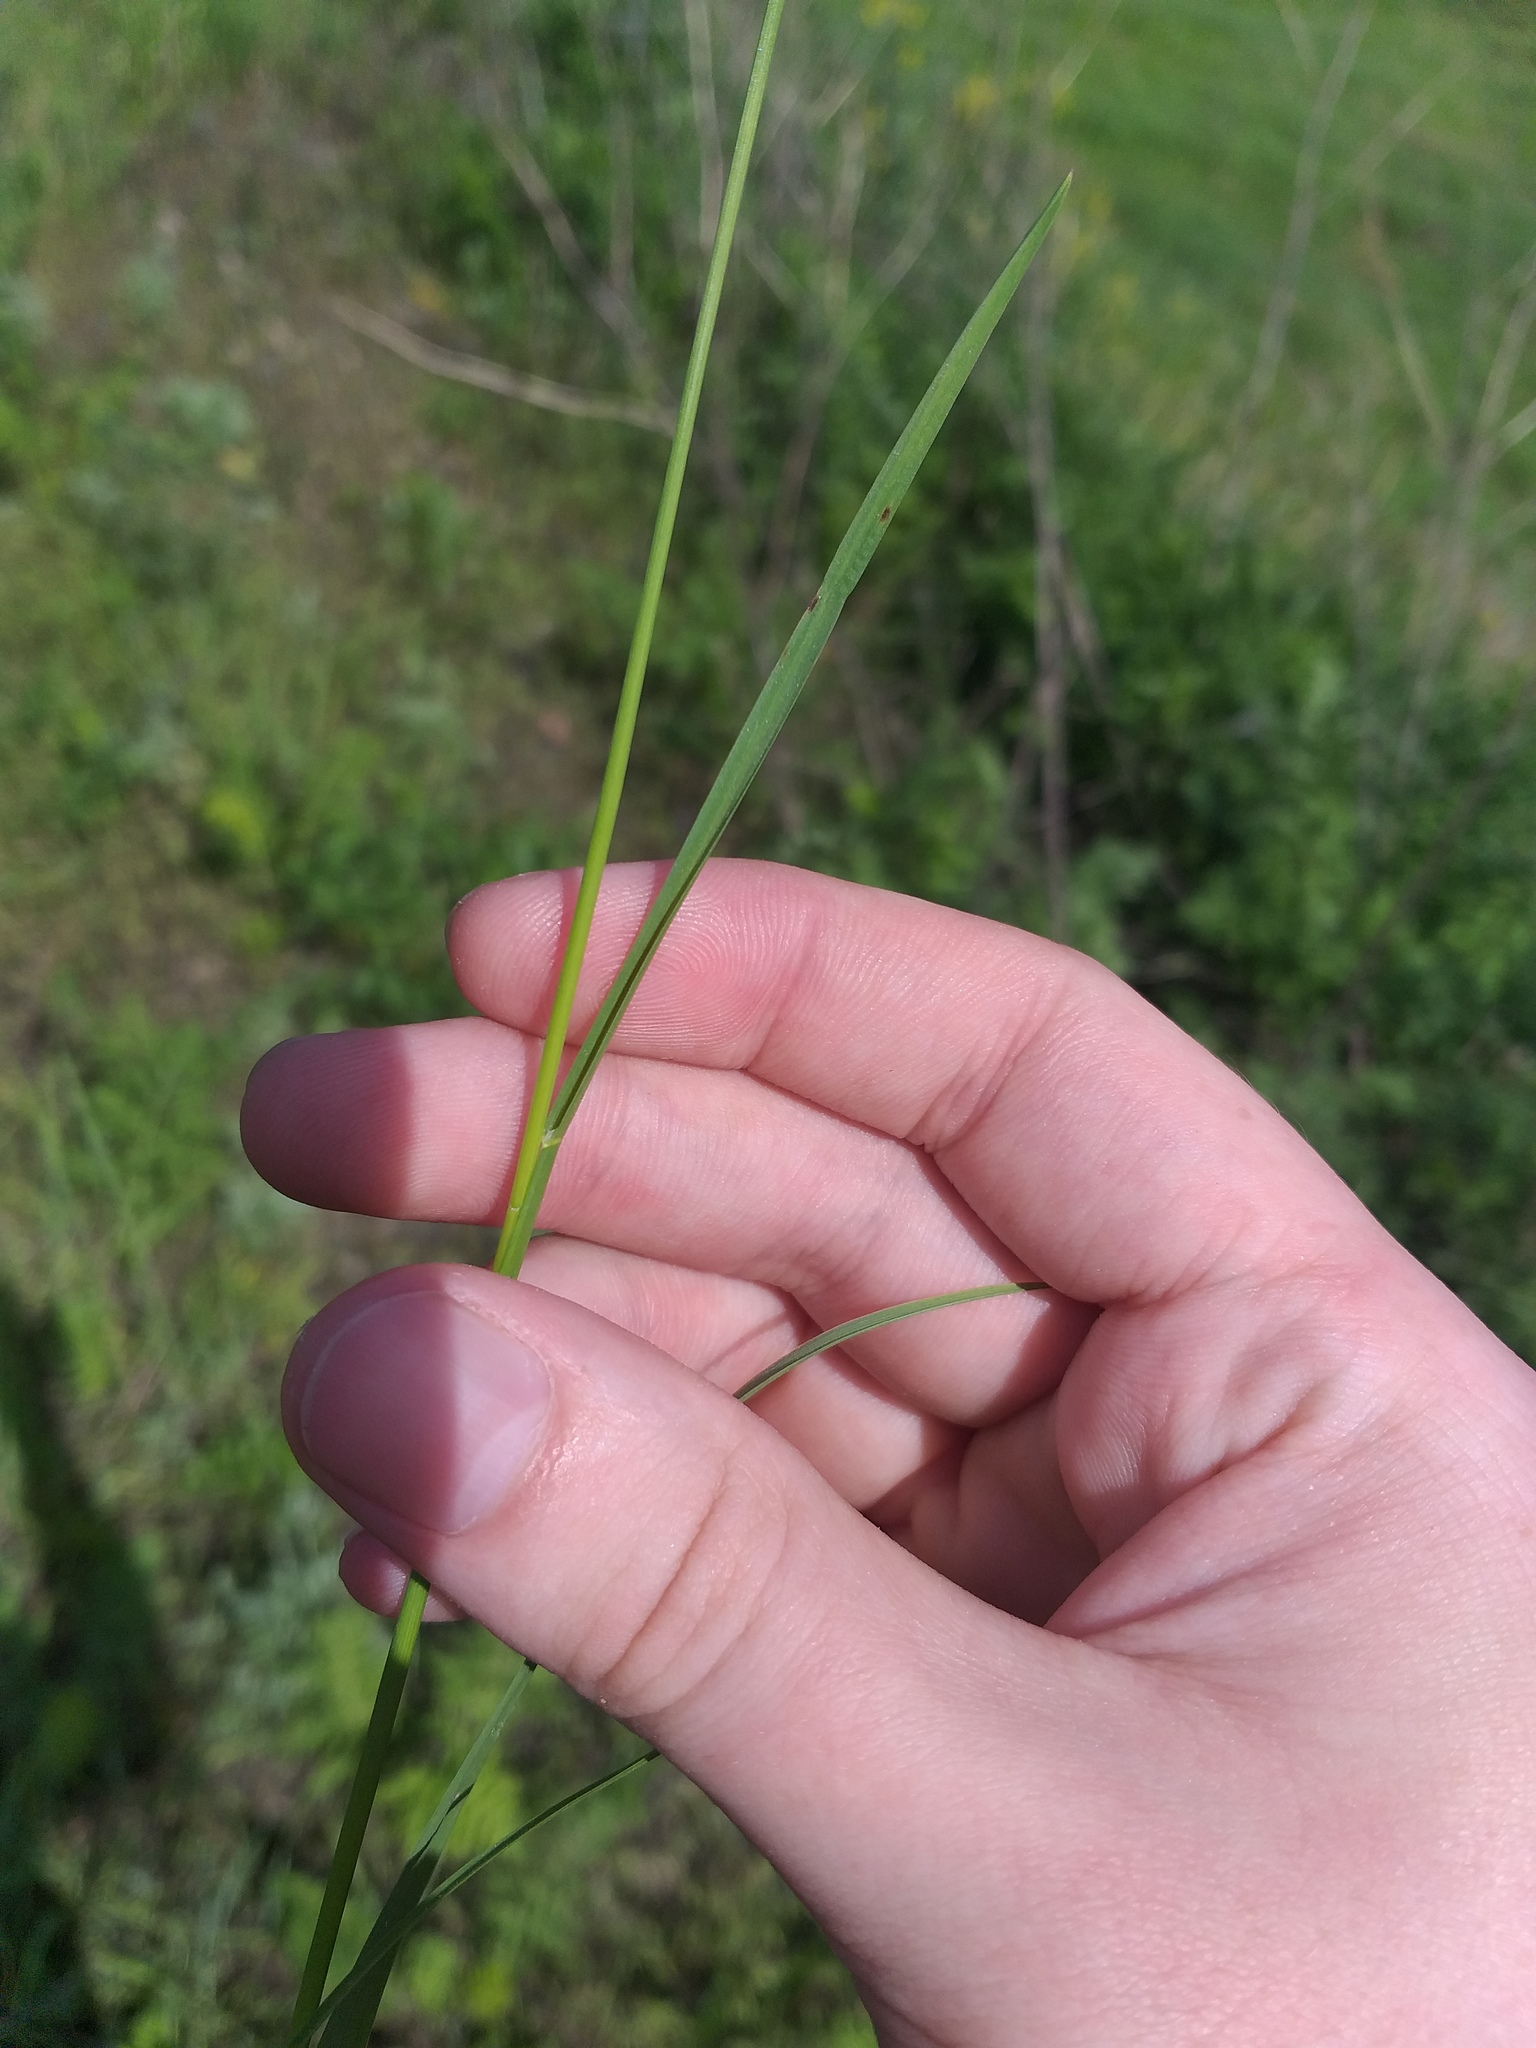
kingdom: Plantae
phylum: Tracheophyta
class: Liliopsida
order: Poales
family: Poaceae
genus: Poa
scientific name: Poa pratensis
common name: Kentucky bluegrass
